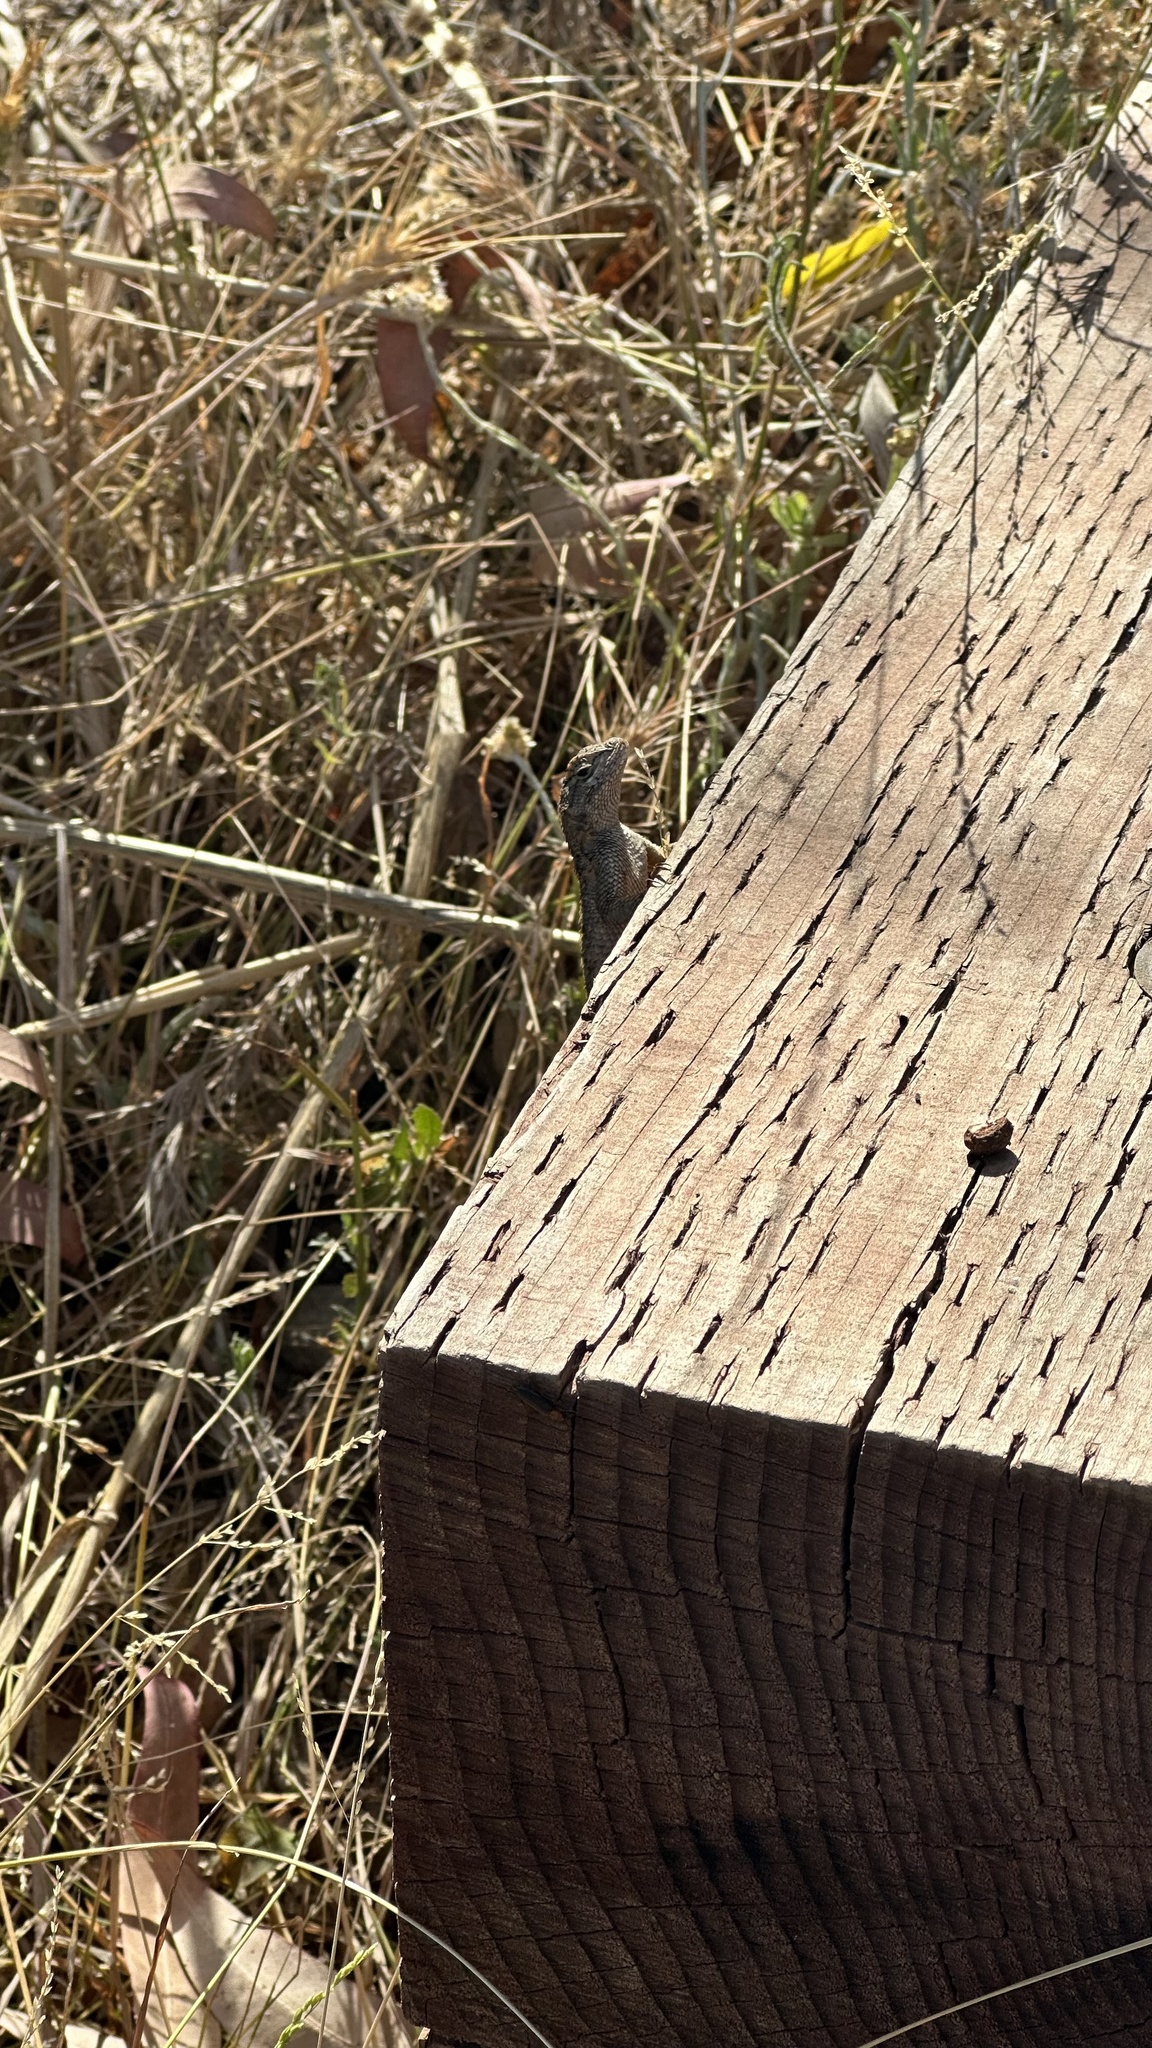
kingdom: Animalia
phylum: Chordata
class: Squamata
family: Phrynosomatidae
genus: Sceloporus
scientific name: Sceloporus occidentalis
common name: Western fence lizard
